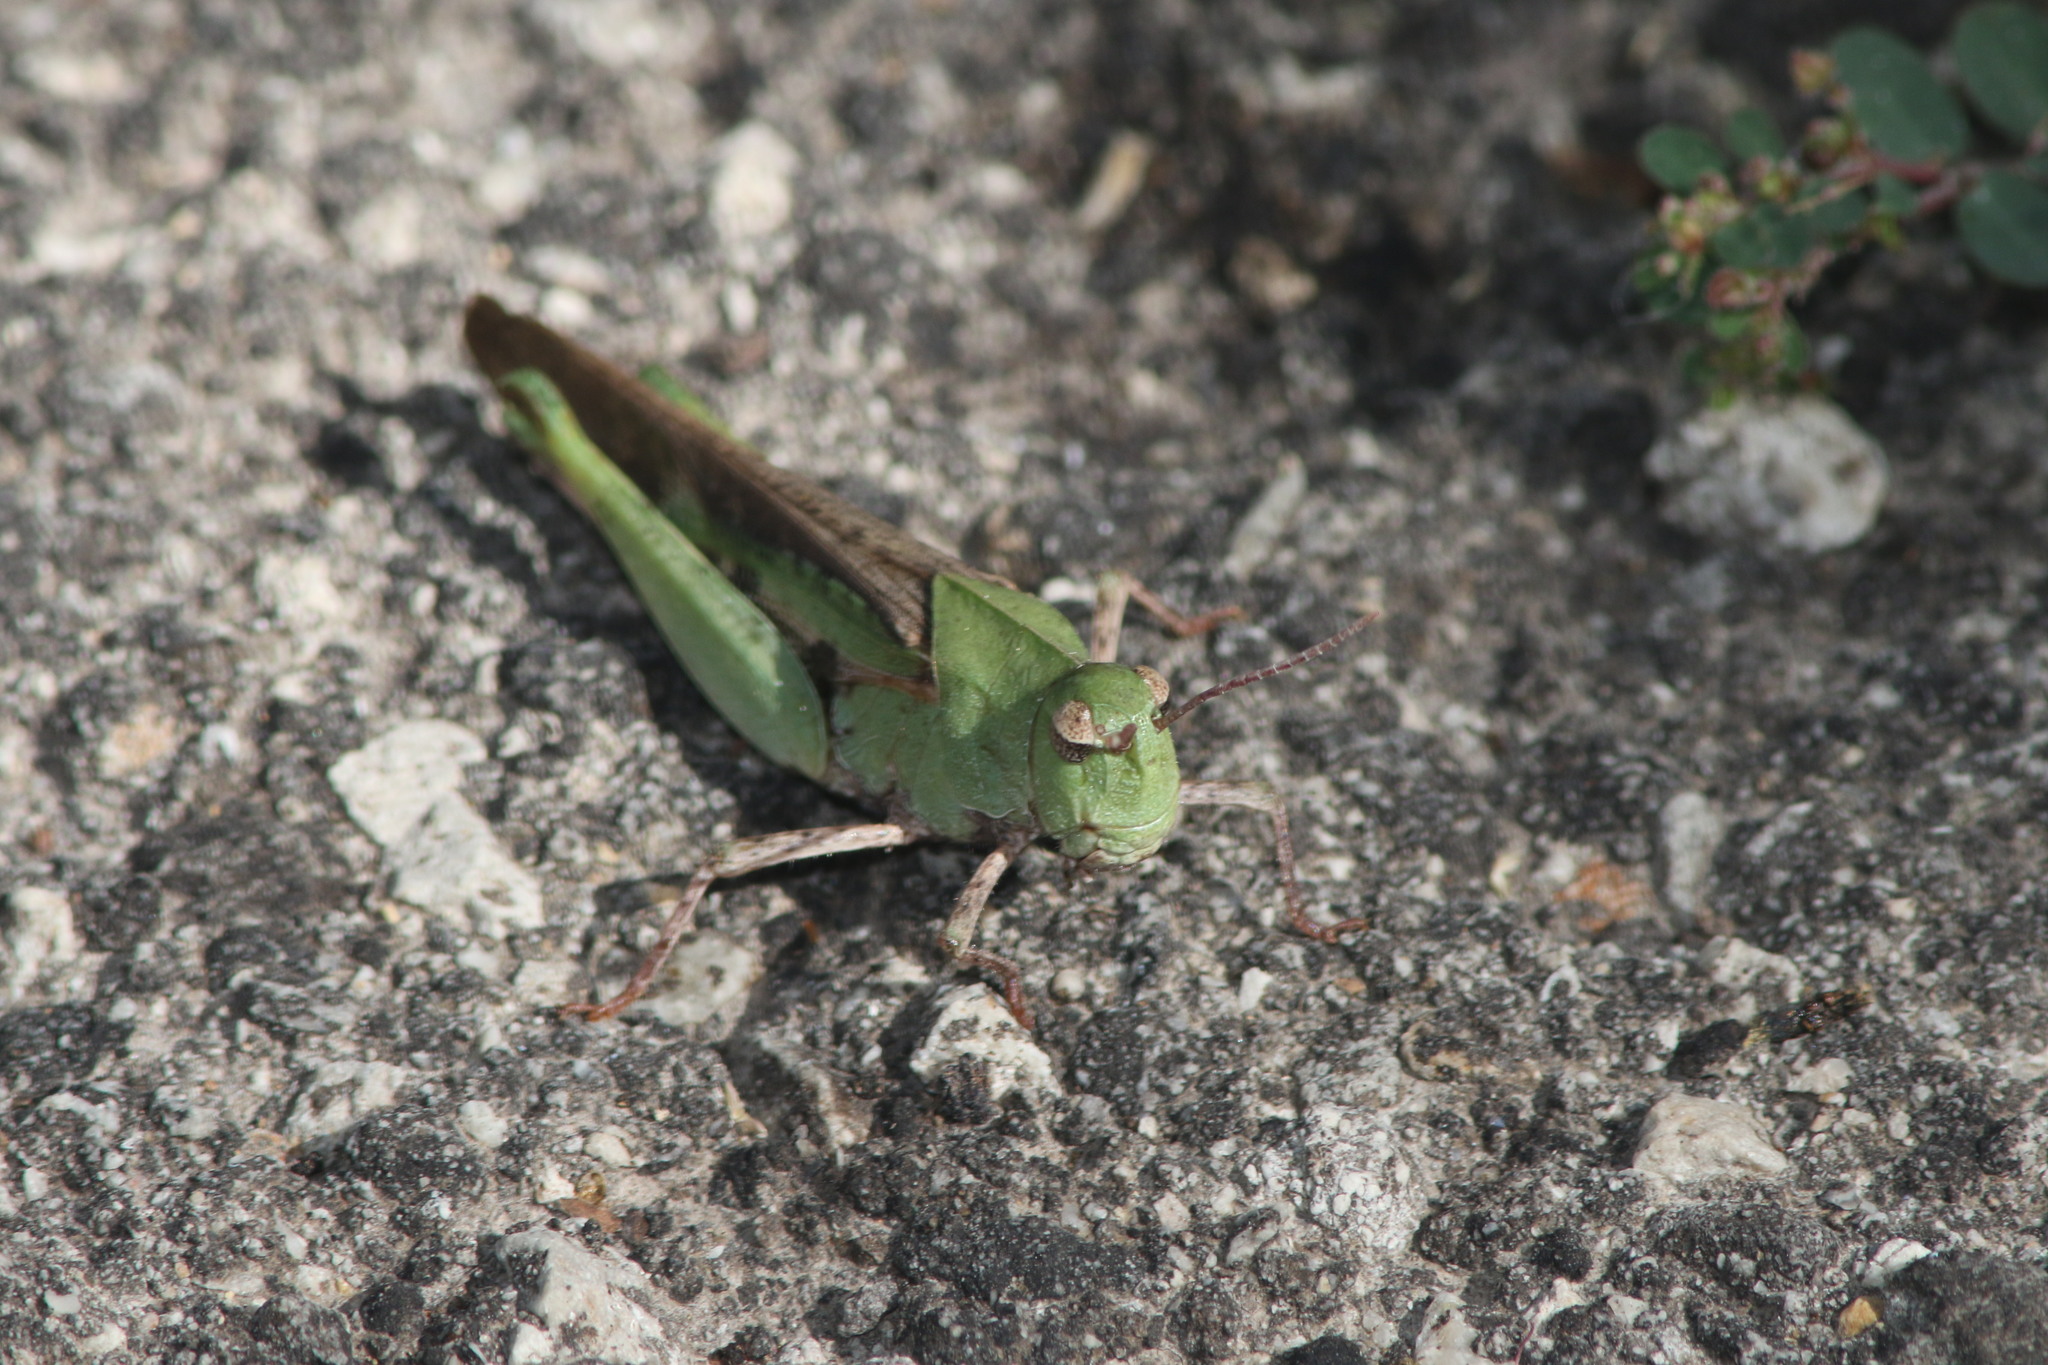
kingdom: Animalia
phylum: Arthropoda
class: Insecta
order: Orthoptera
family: Acrididae
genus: Chortophaga
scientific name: Chortophaga viridifasciata
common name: Green-striped grasshopper
